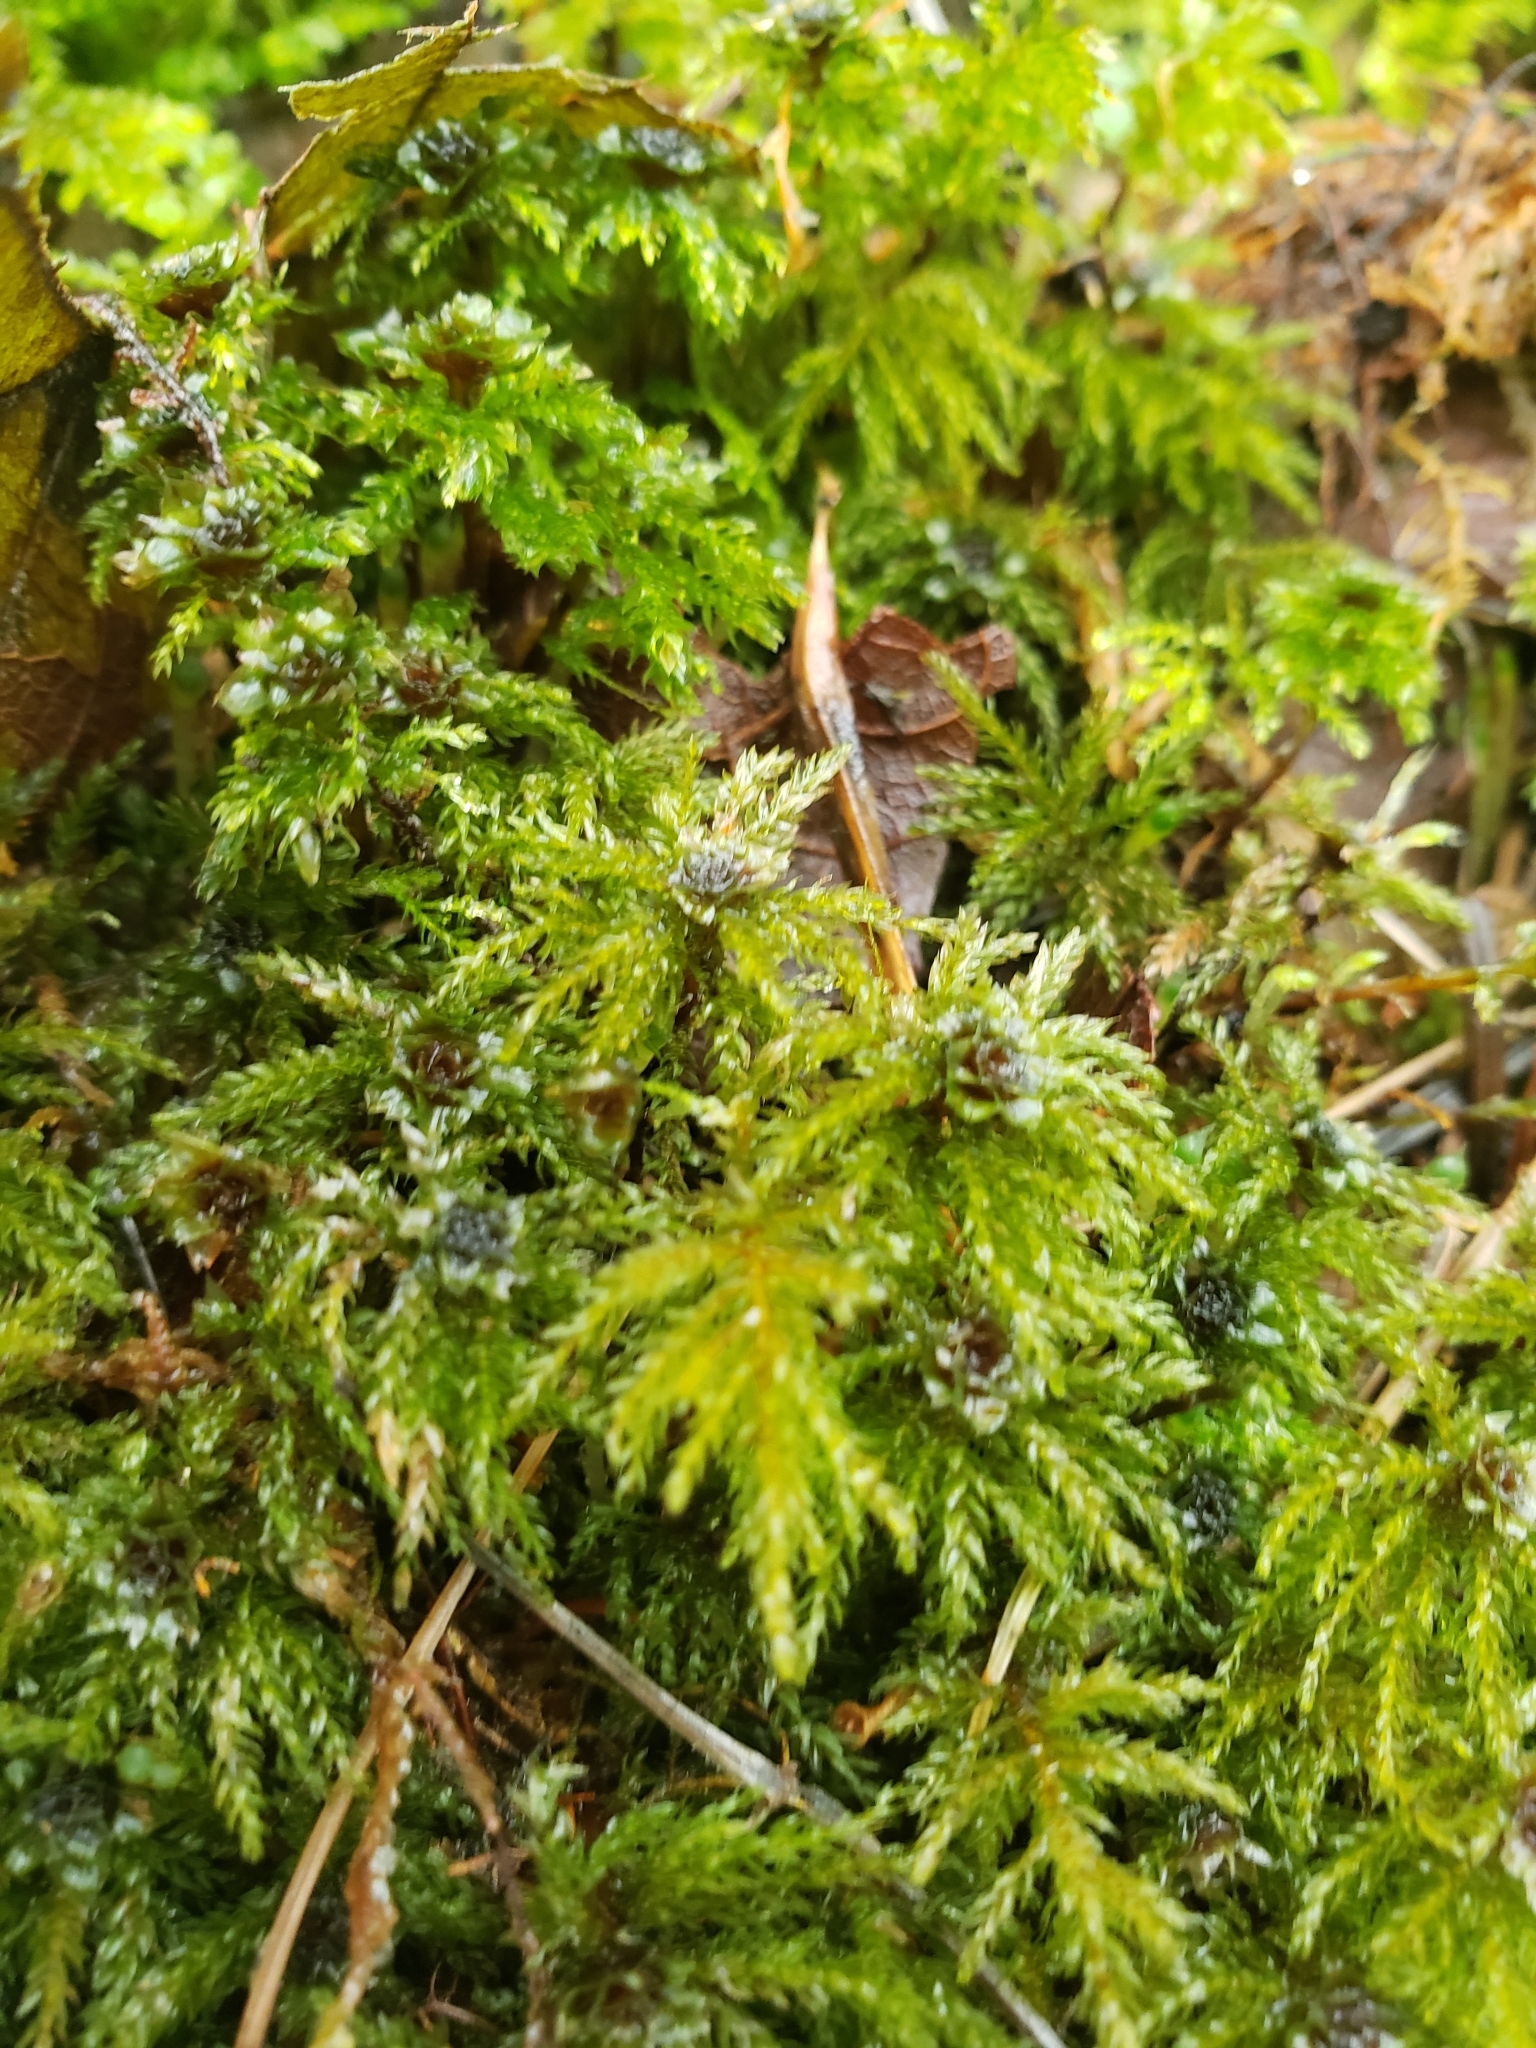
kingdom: Plantae
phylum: Bryophyta
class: Bryopsida
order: Bryales
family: Mniaceae
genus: Leucolepis
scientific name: Leucolepis acanthoneura
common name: Leucolepis umbrella moss
